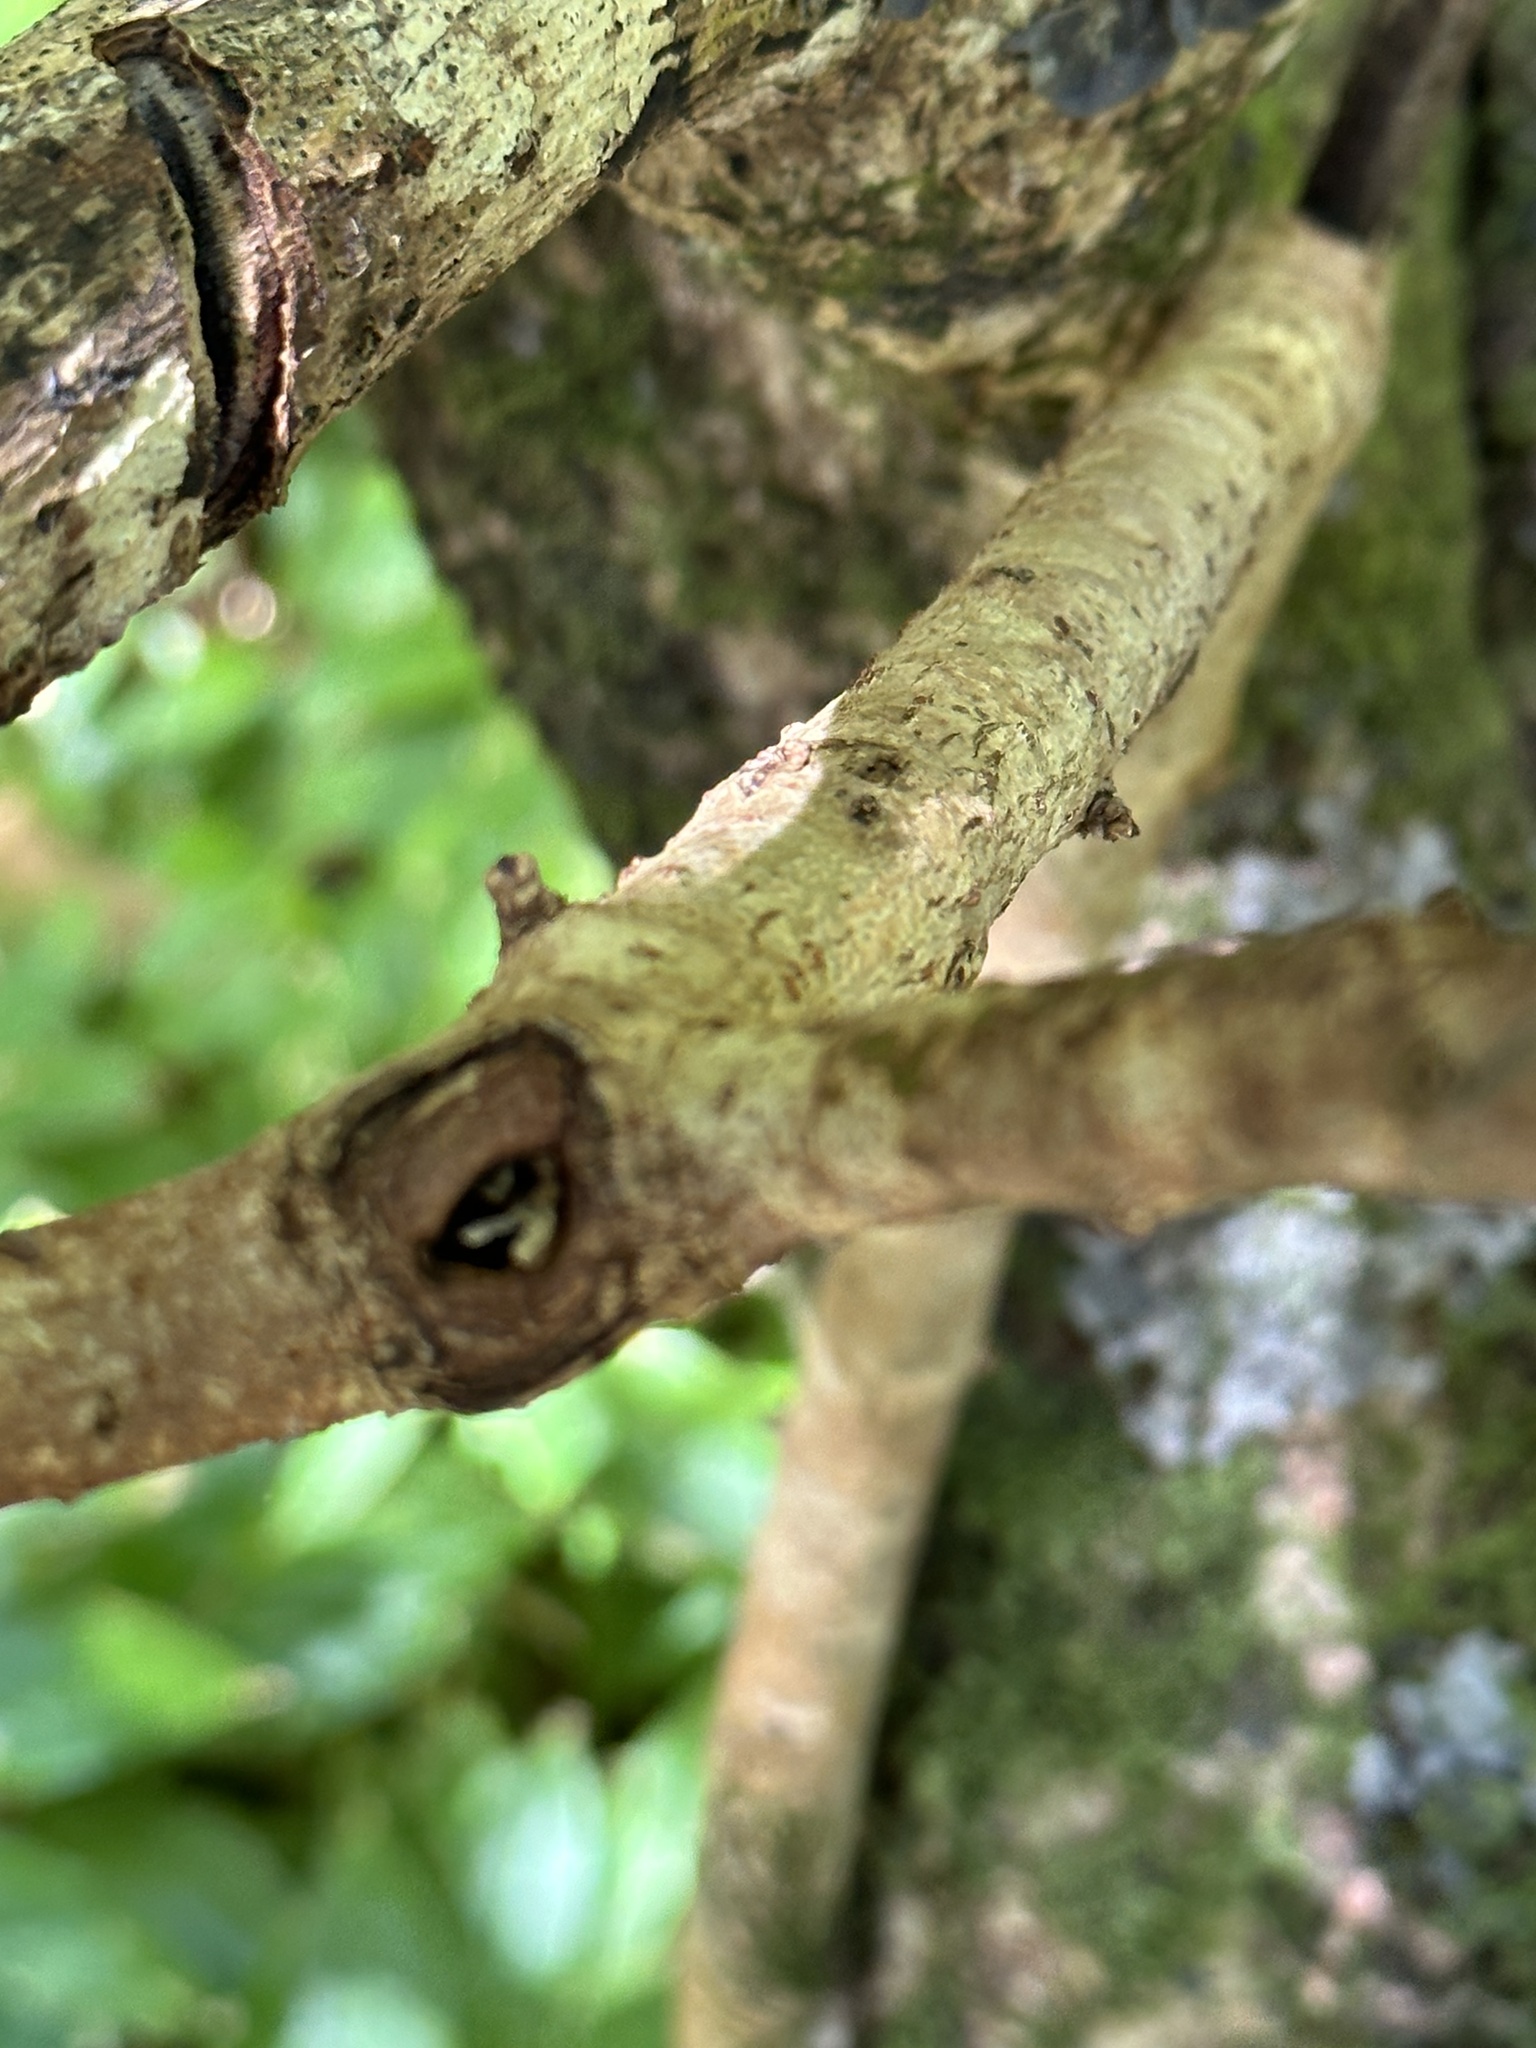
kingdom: Plantae
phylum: Tracheophyta
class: Magnoliopsida
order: Laurales
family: Lauraceae
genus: Persea
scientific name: Persea americana
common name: Avocado
